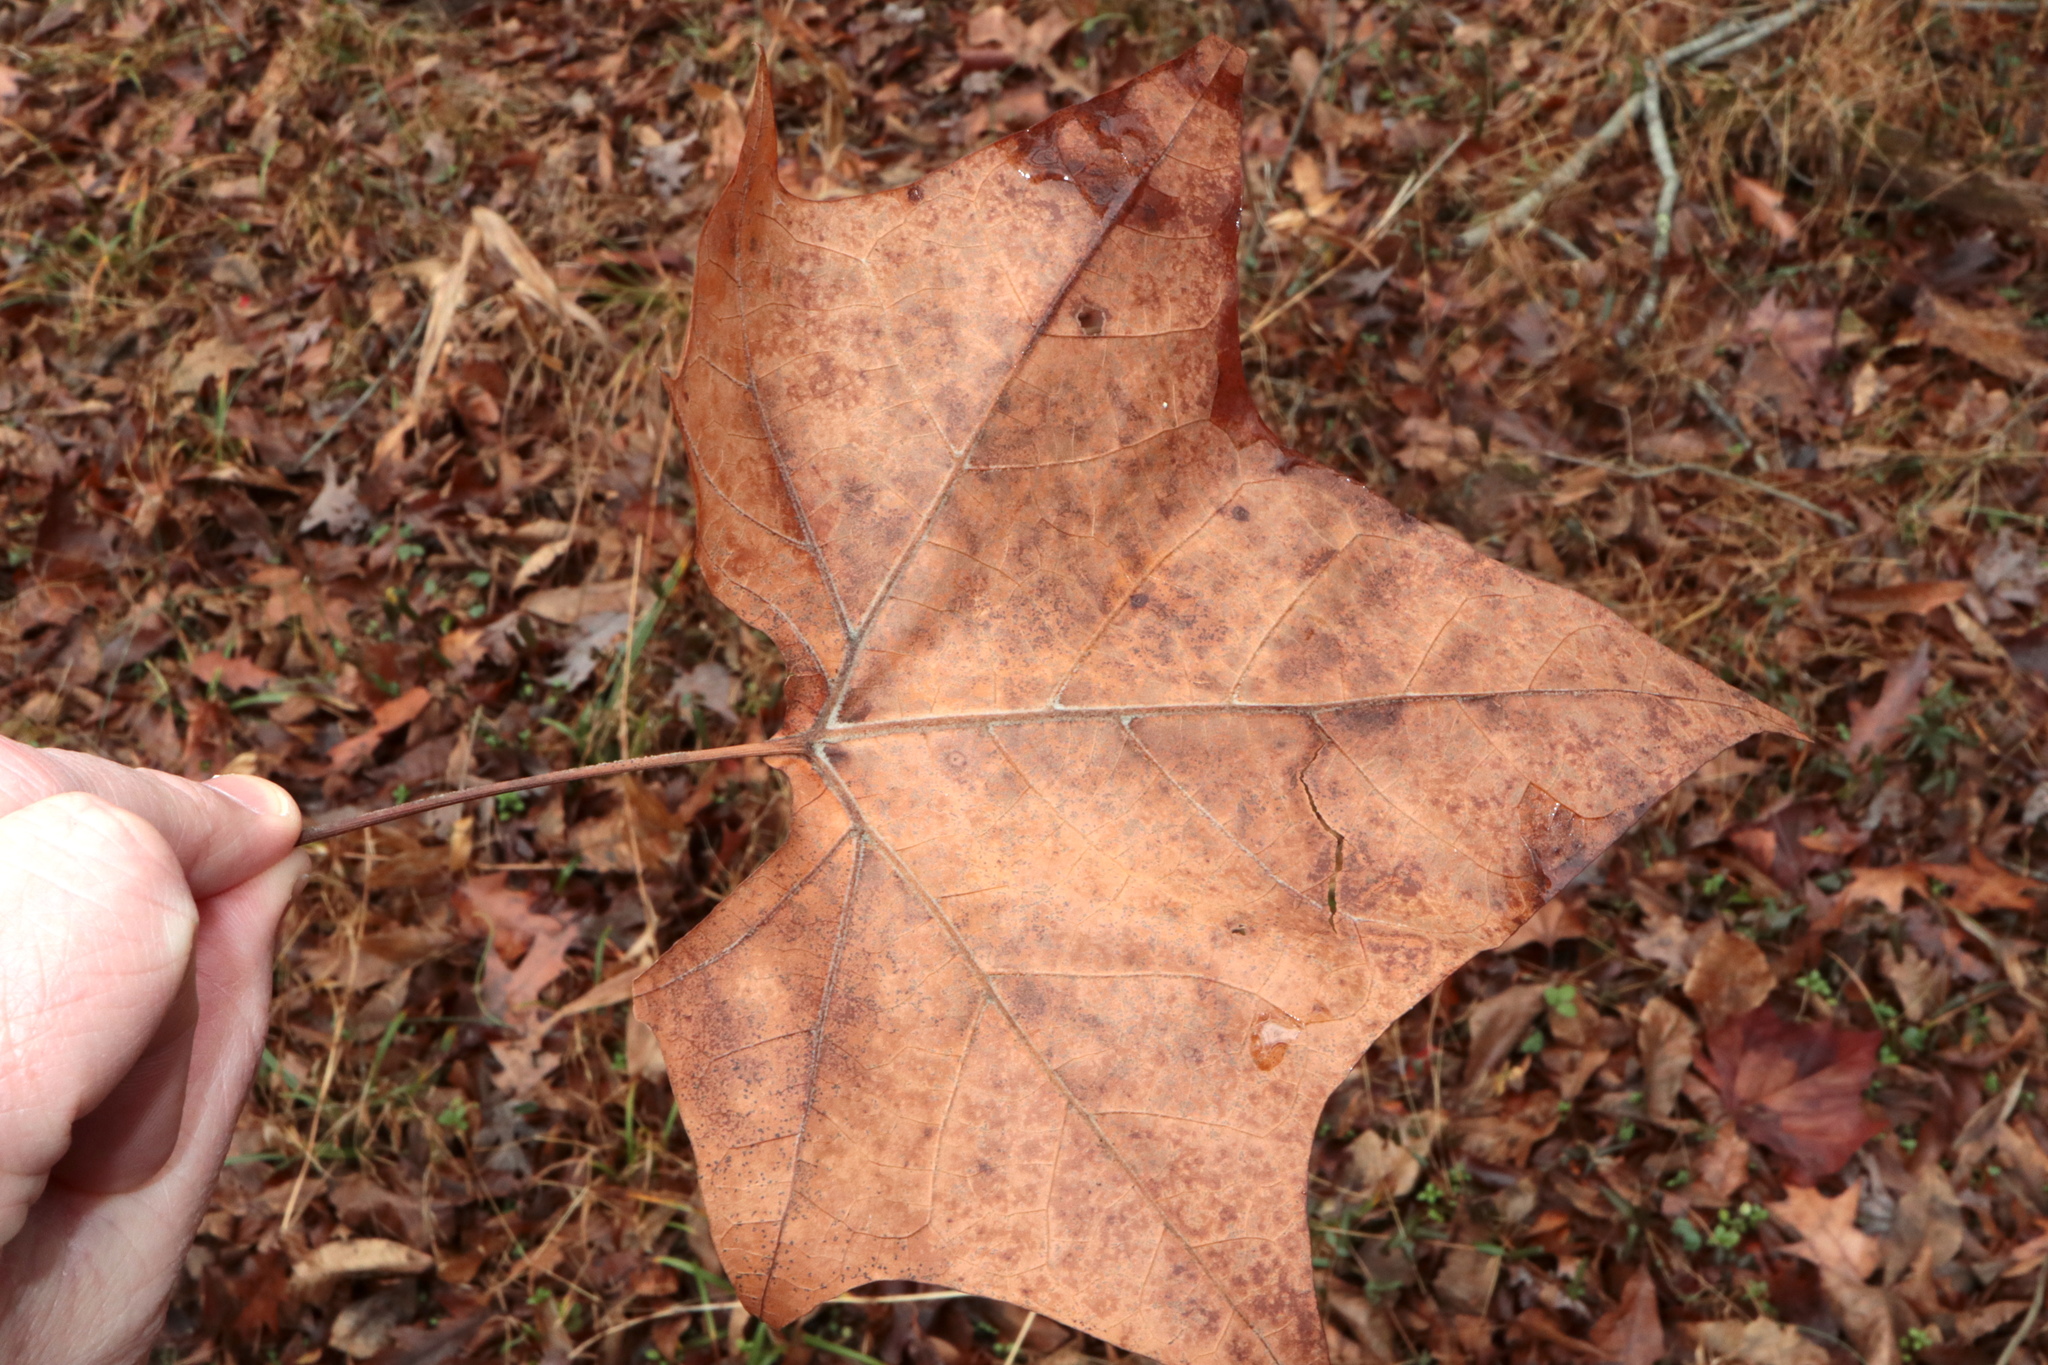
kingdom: Plantae
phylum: Tracheophyta
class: Magnoliopsida
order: Proteales
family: Platanaceae
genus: Platanus
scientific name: Platanus occidentalis
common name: American sycamore
